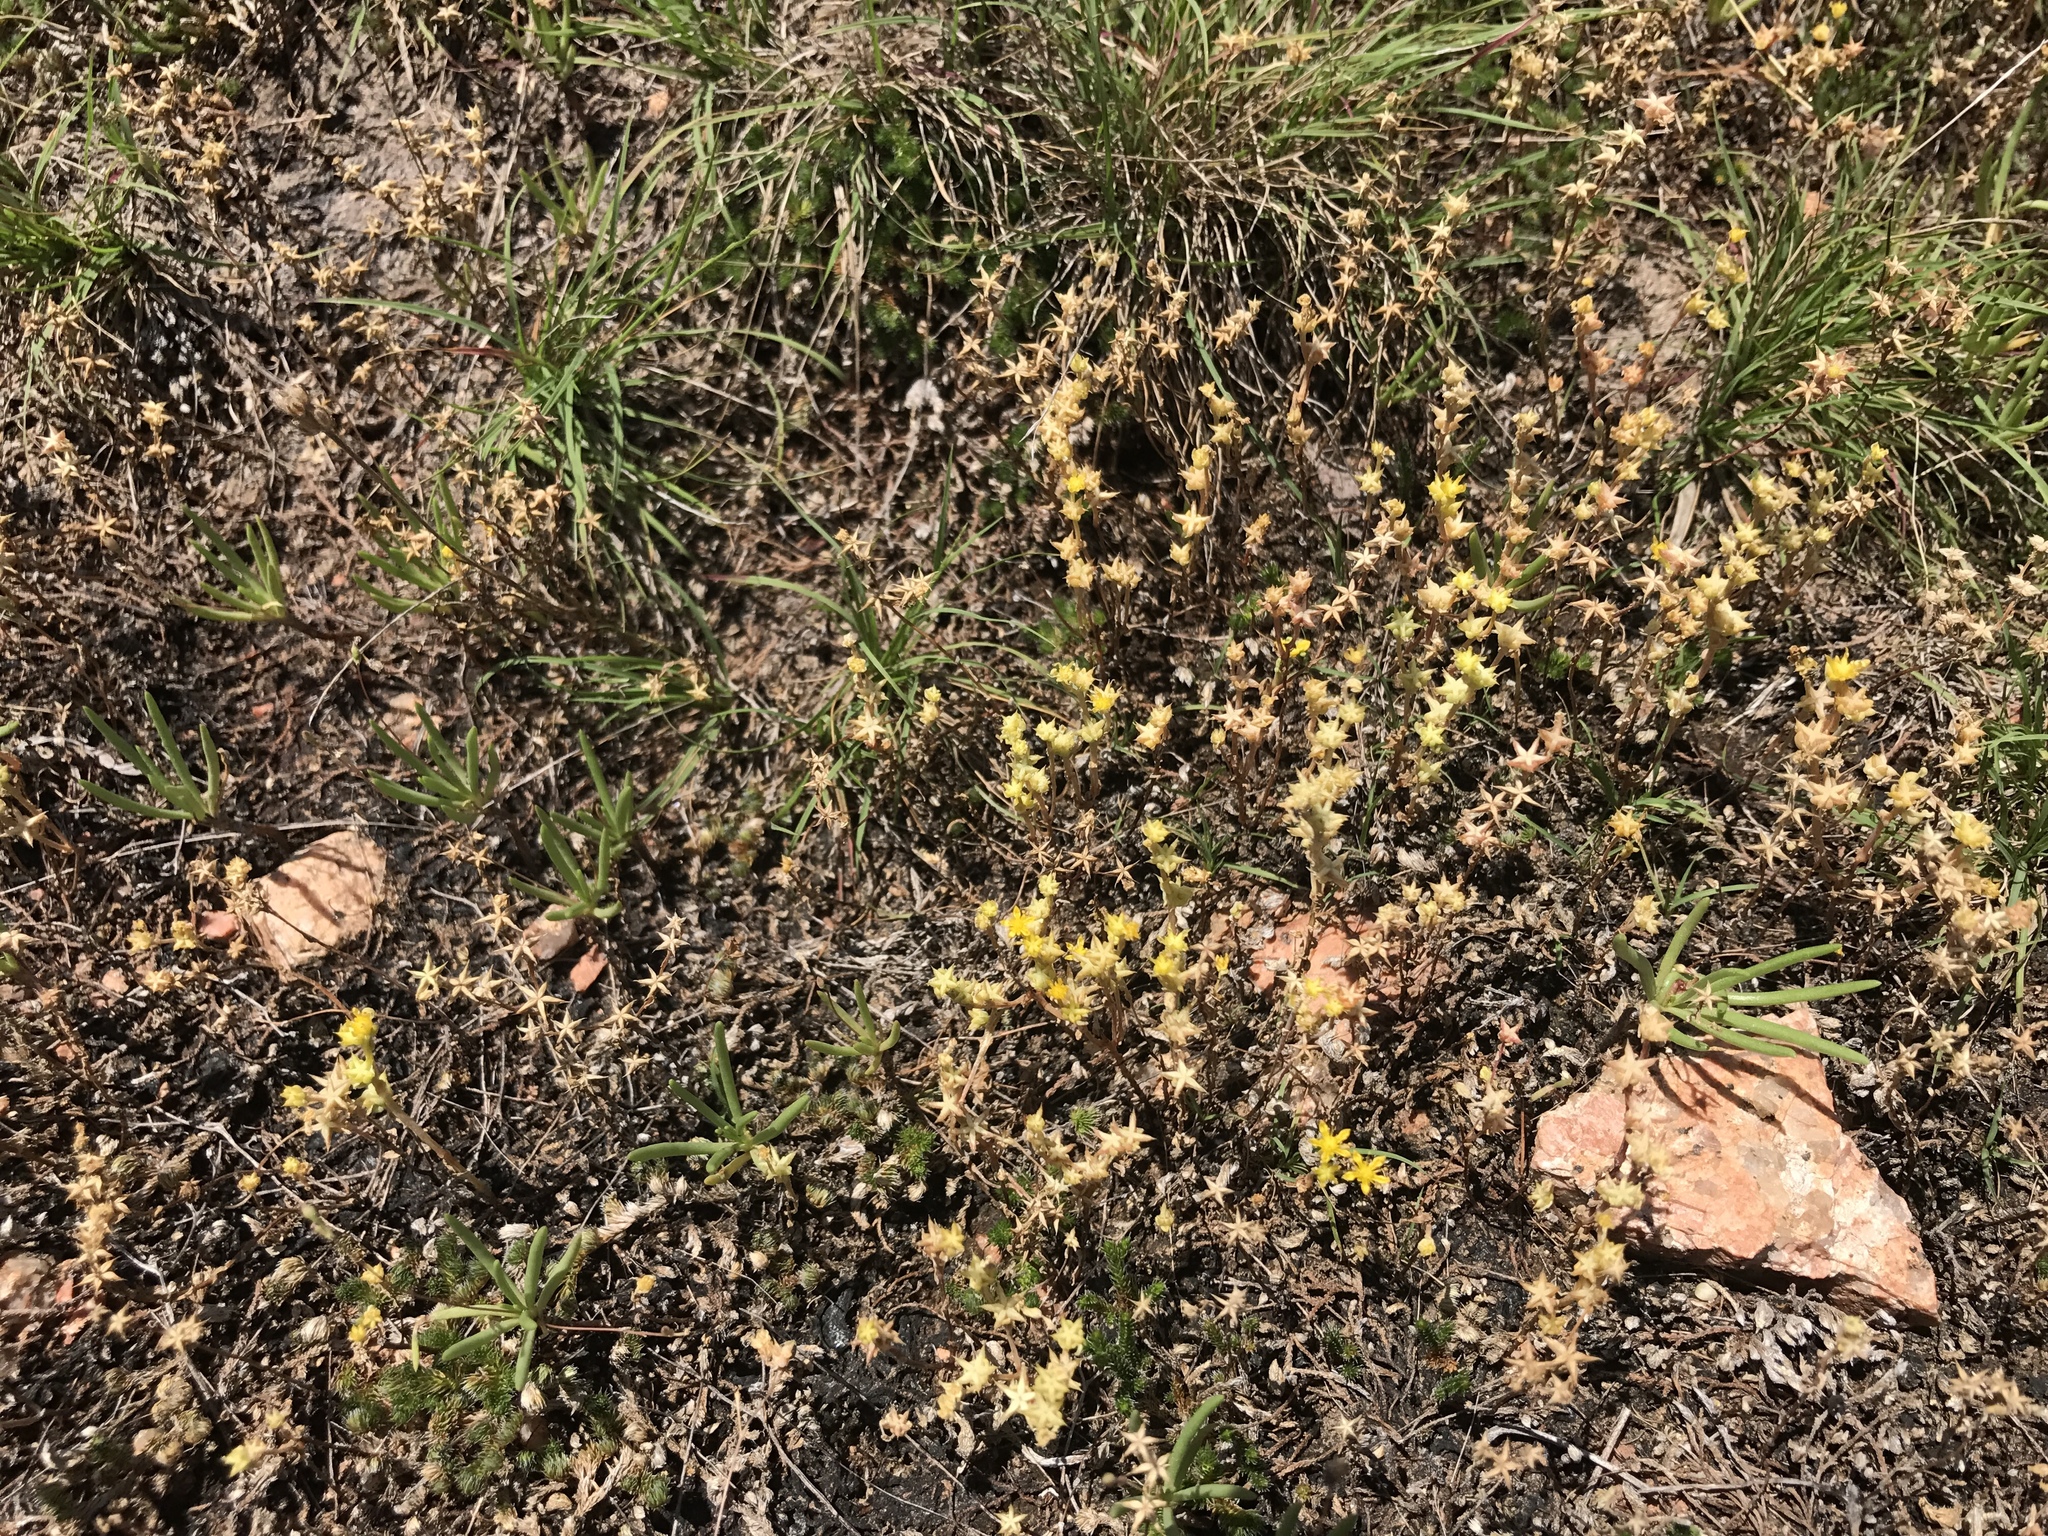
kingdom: Plantae
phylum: Tracheophyta
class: Magnoliopsida
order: Saxifragales
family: Crassulaceae
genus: Sedum
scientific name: Sedum nuttallii
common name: Yellow stonecrop
